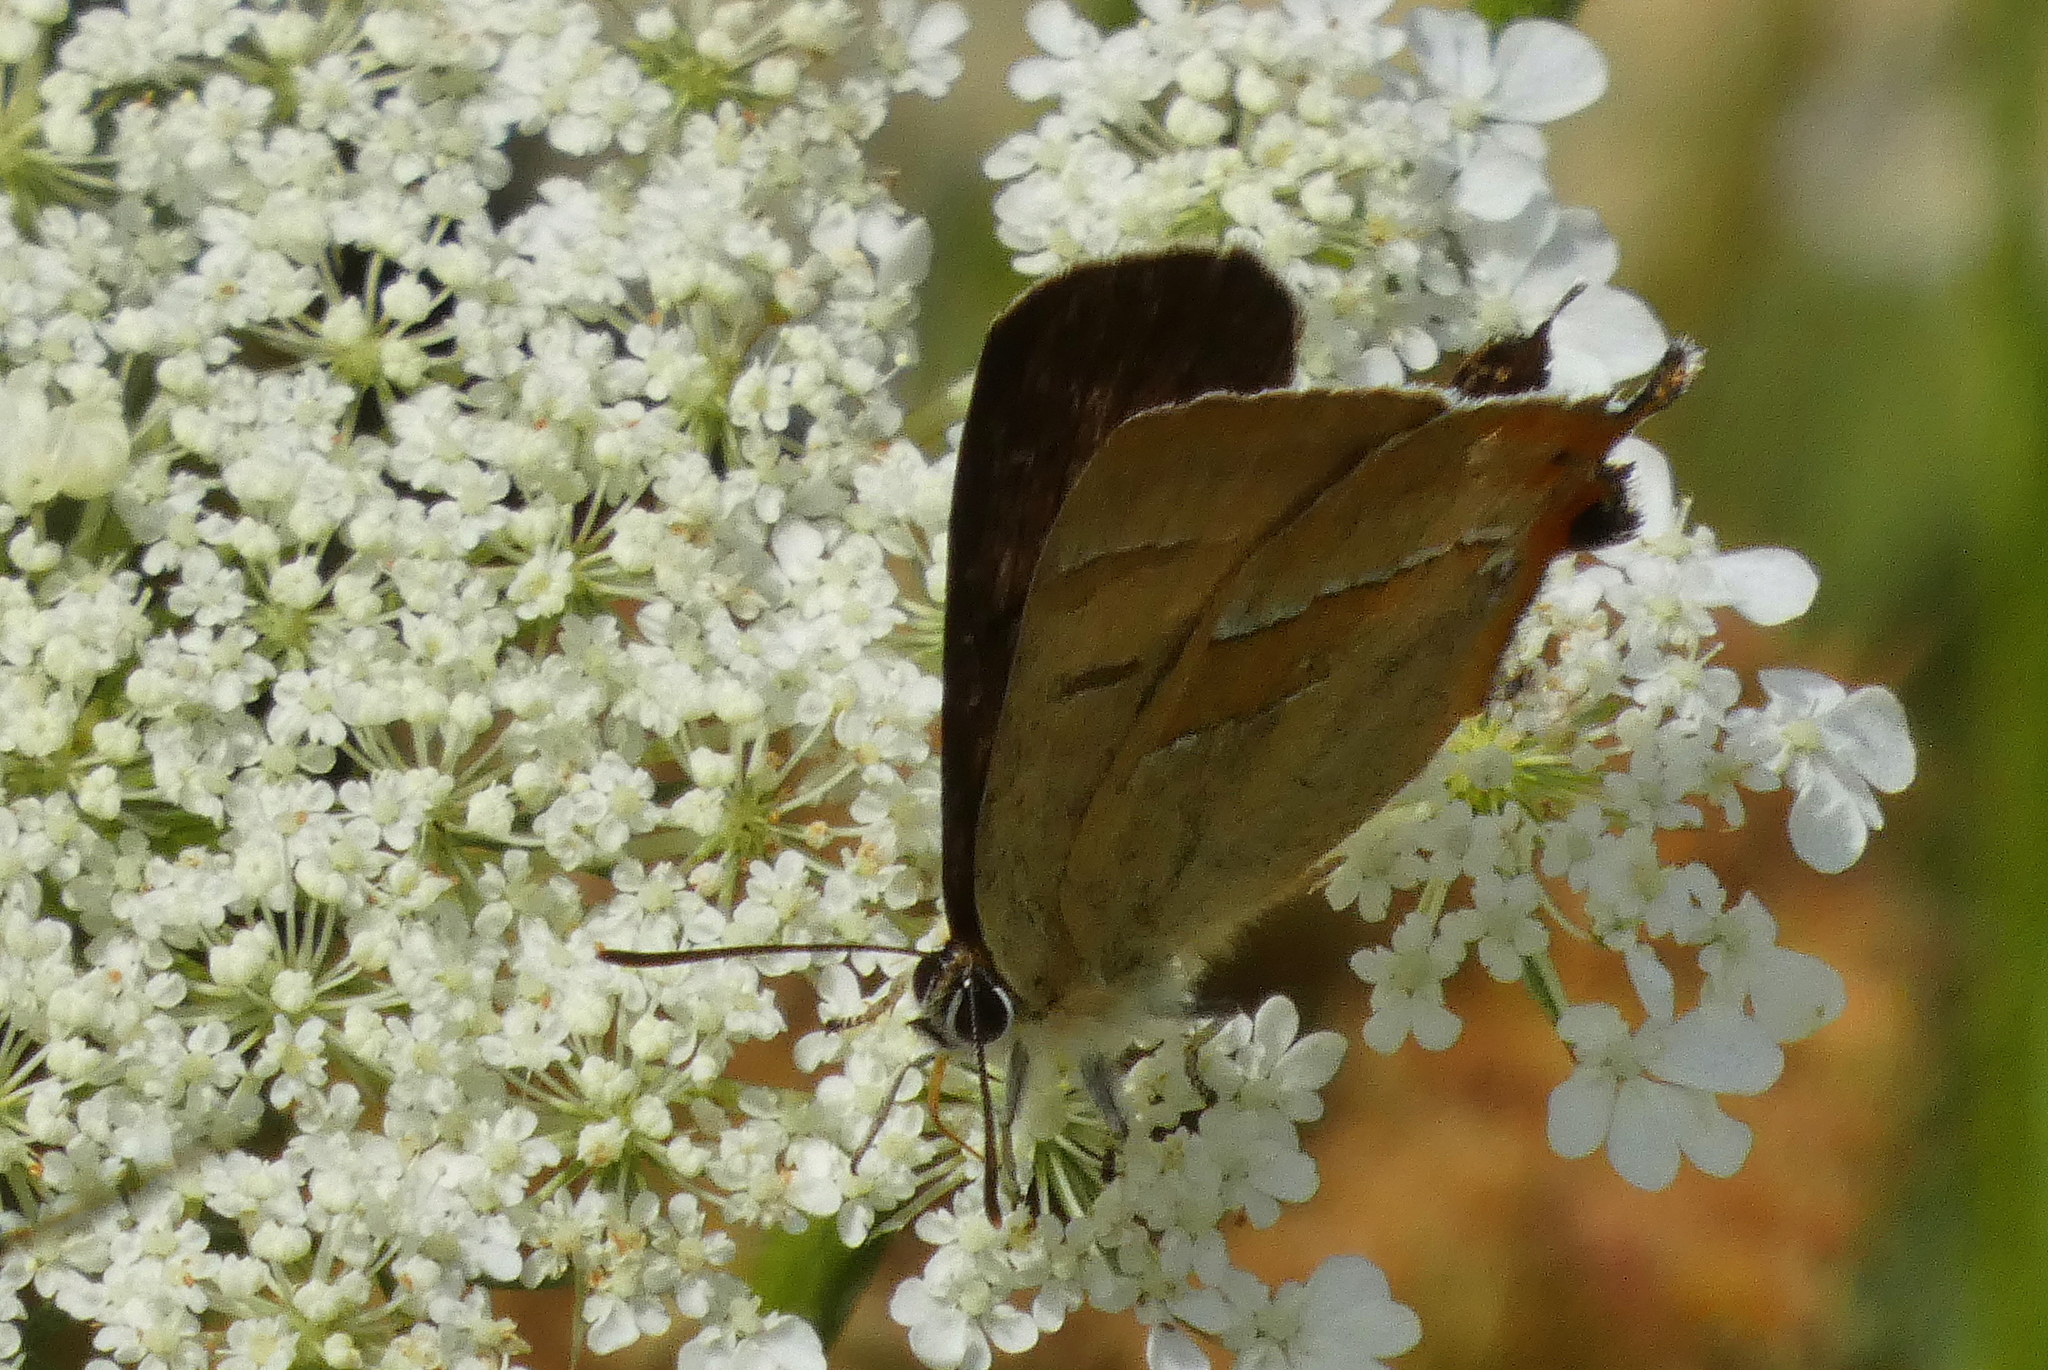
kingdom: Animalia
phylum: Arthropoda
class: Insecta
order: Lepidoptera
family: Lycaenidae
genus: Thecla
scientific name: Thecla betulae
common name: Brown hairstreak
